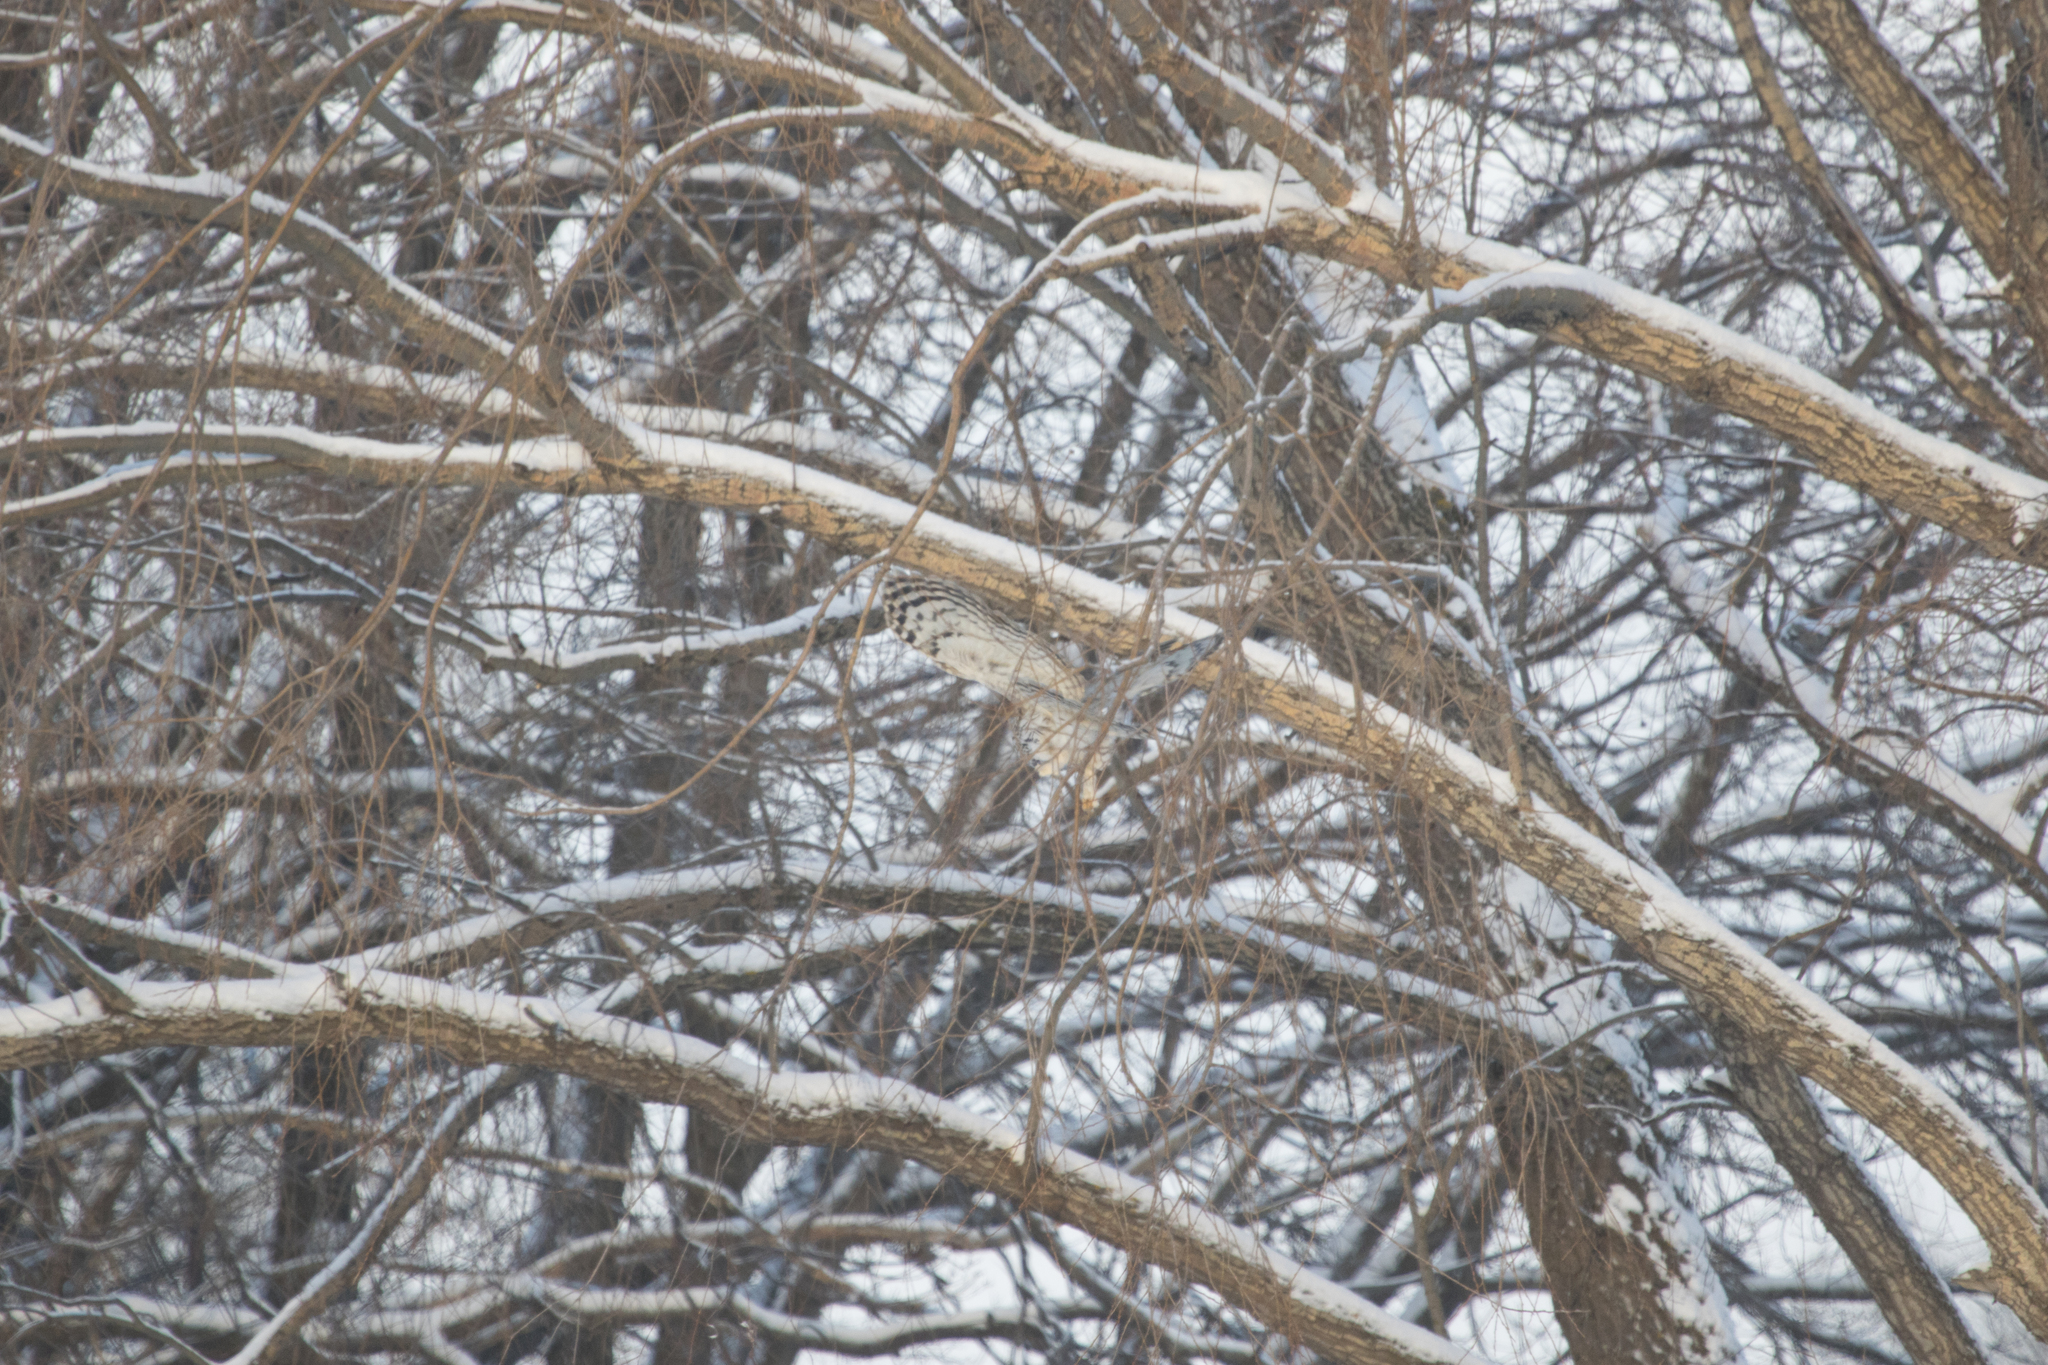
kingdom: Animalia
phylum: Chordata
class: Aves
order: Strigiformes
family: Strigidae
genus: Strix
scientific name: Strix uralensis
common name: Ural owl
